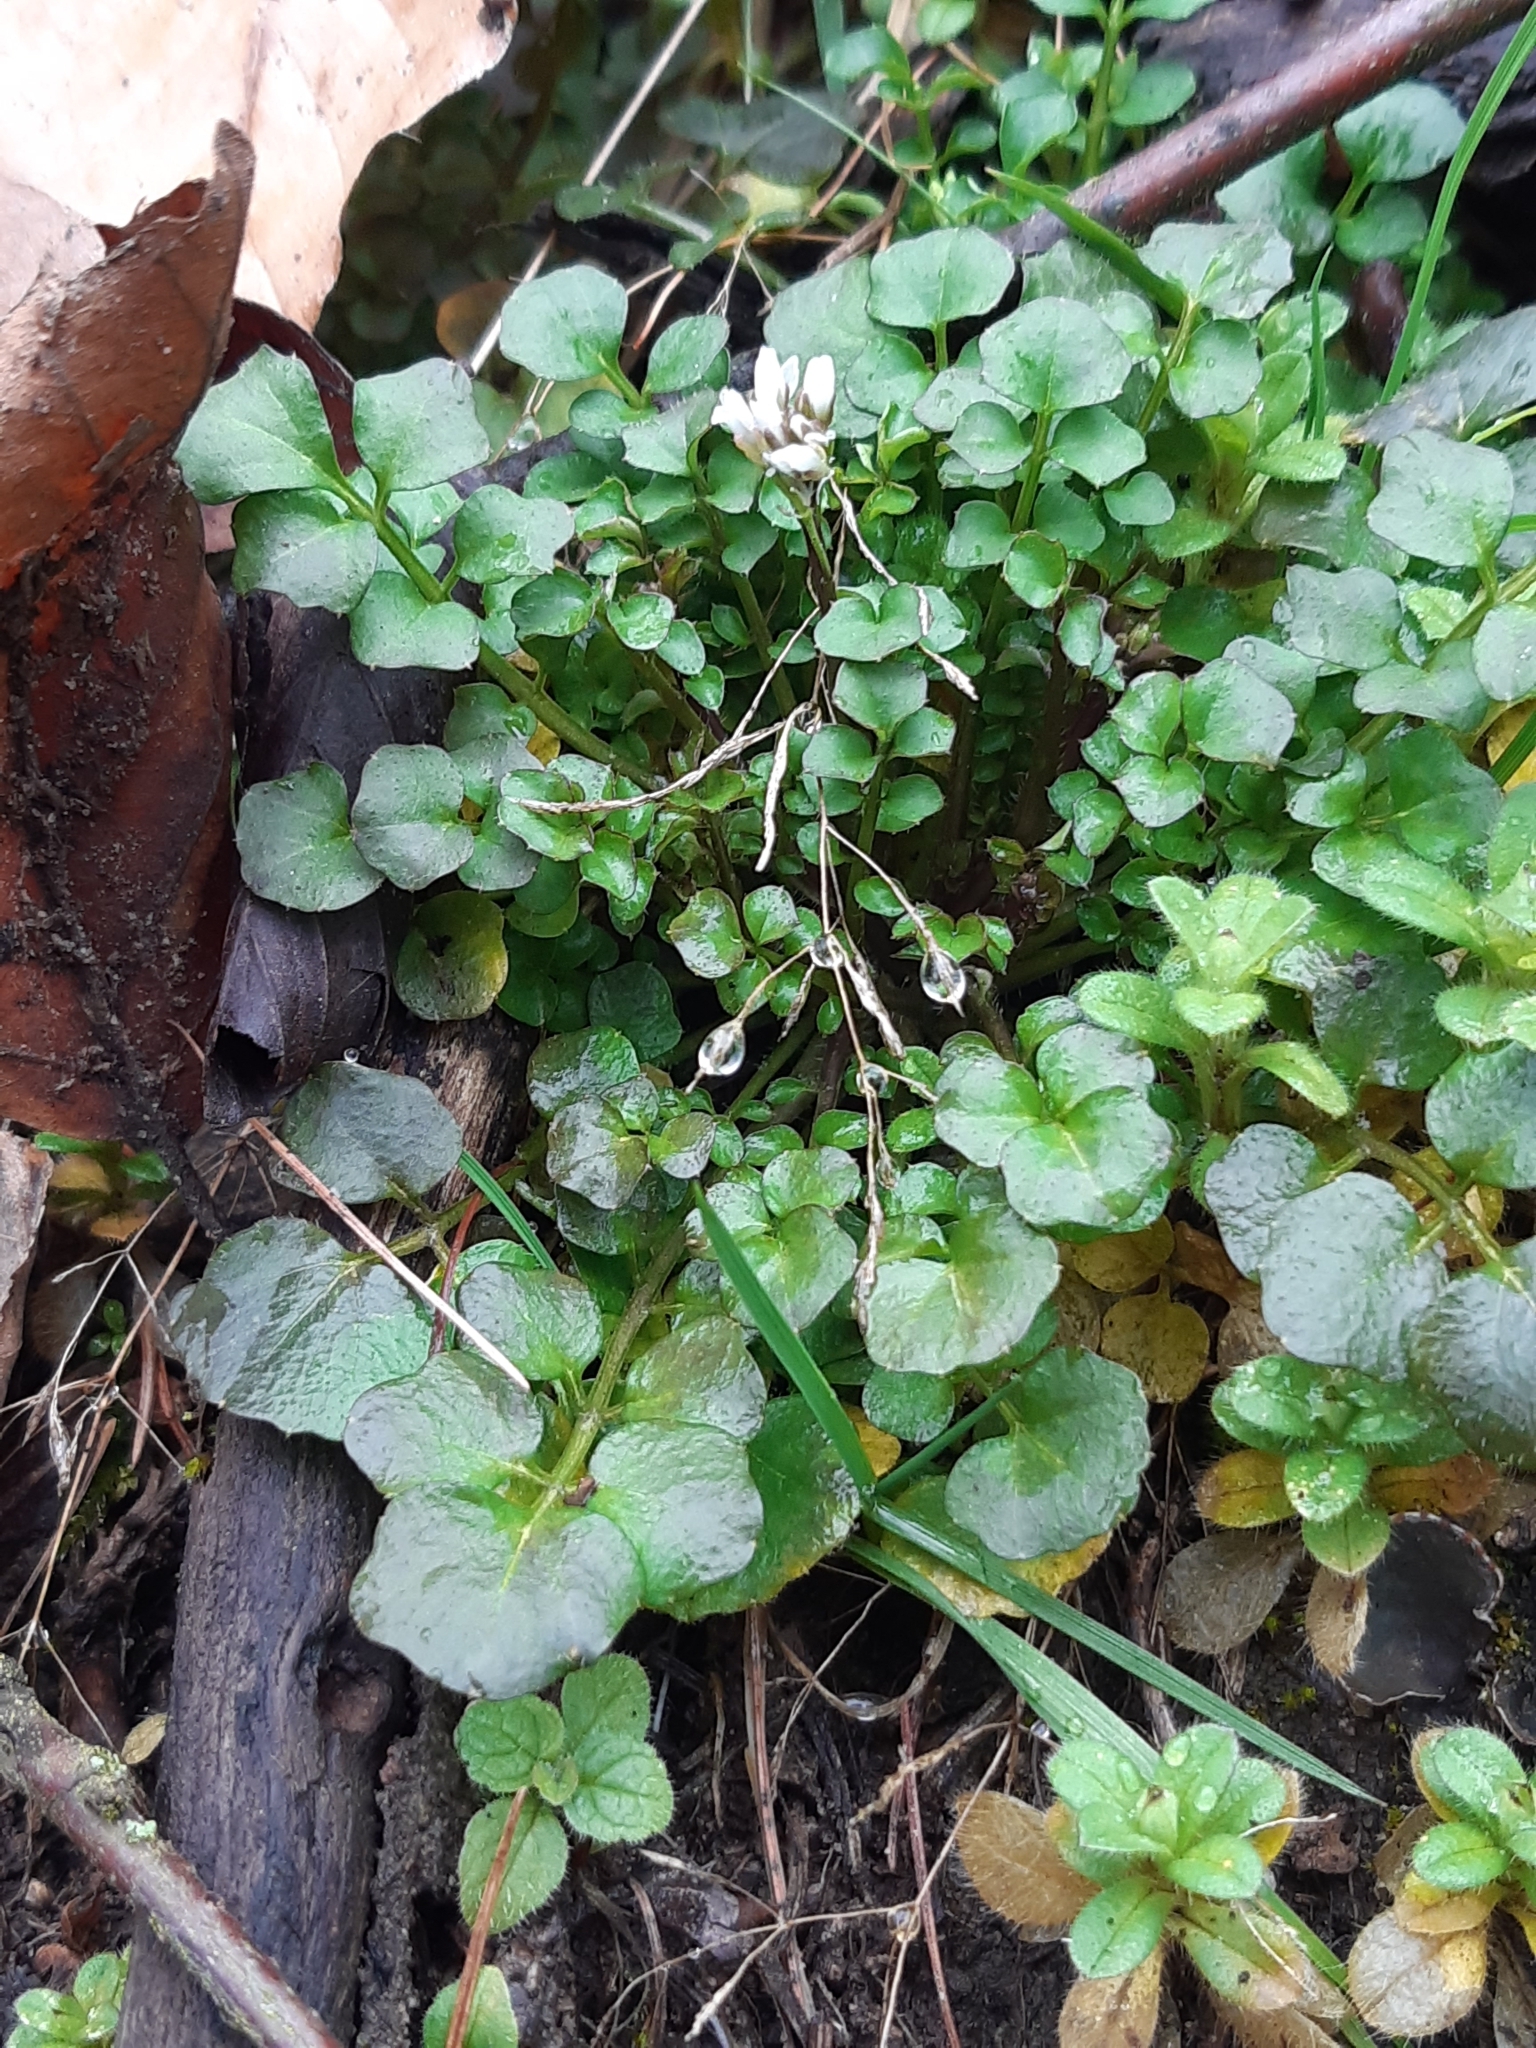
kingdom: Plantae
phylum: Tracheophyta
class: Magnoliopsida
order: Brassicales
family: Brassicaceae
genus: Cardamine
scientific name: Cardamine hirsuta
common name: Hairy bittercress
